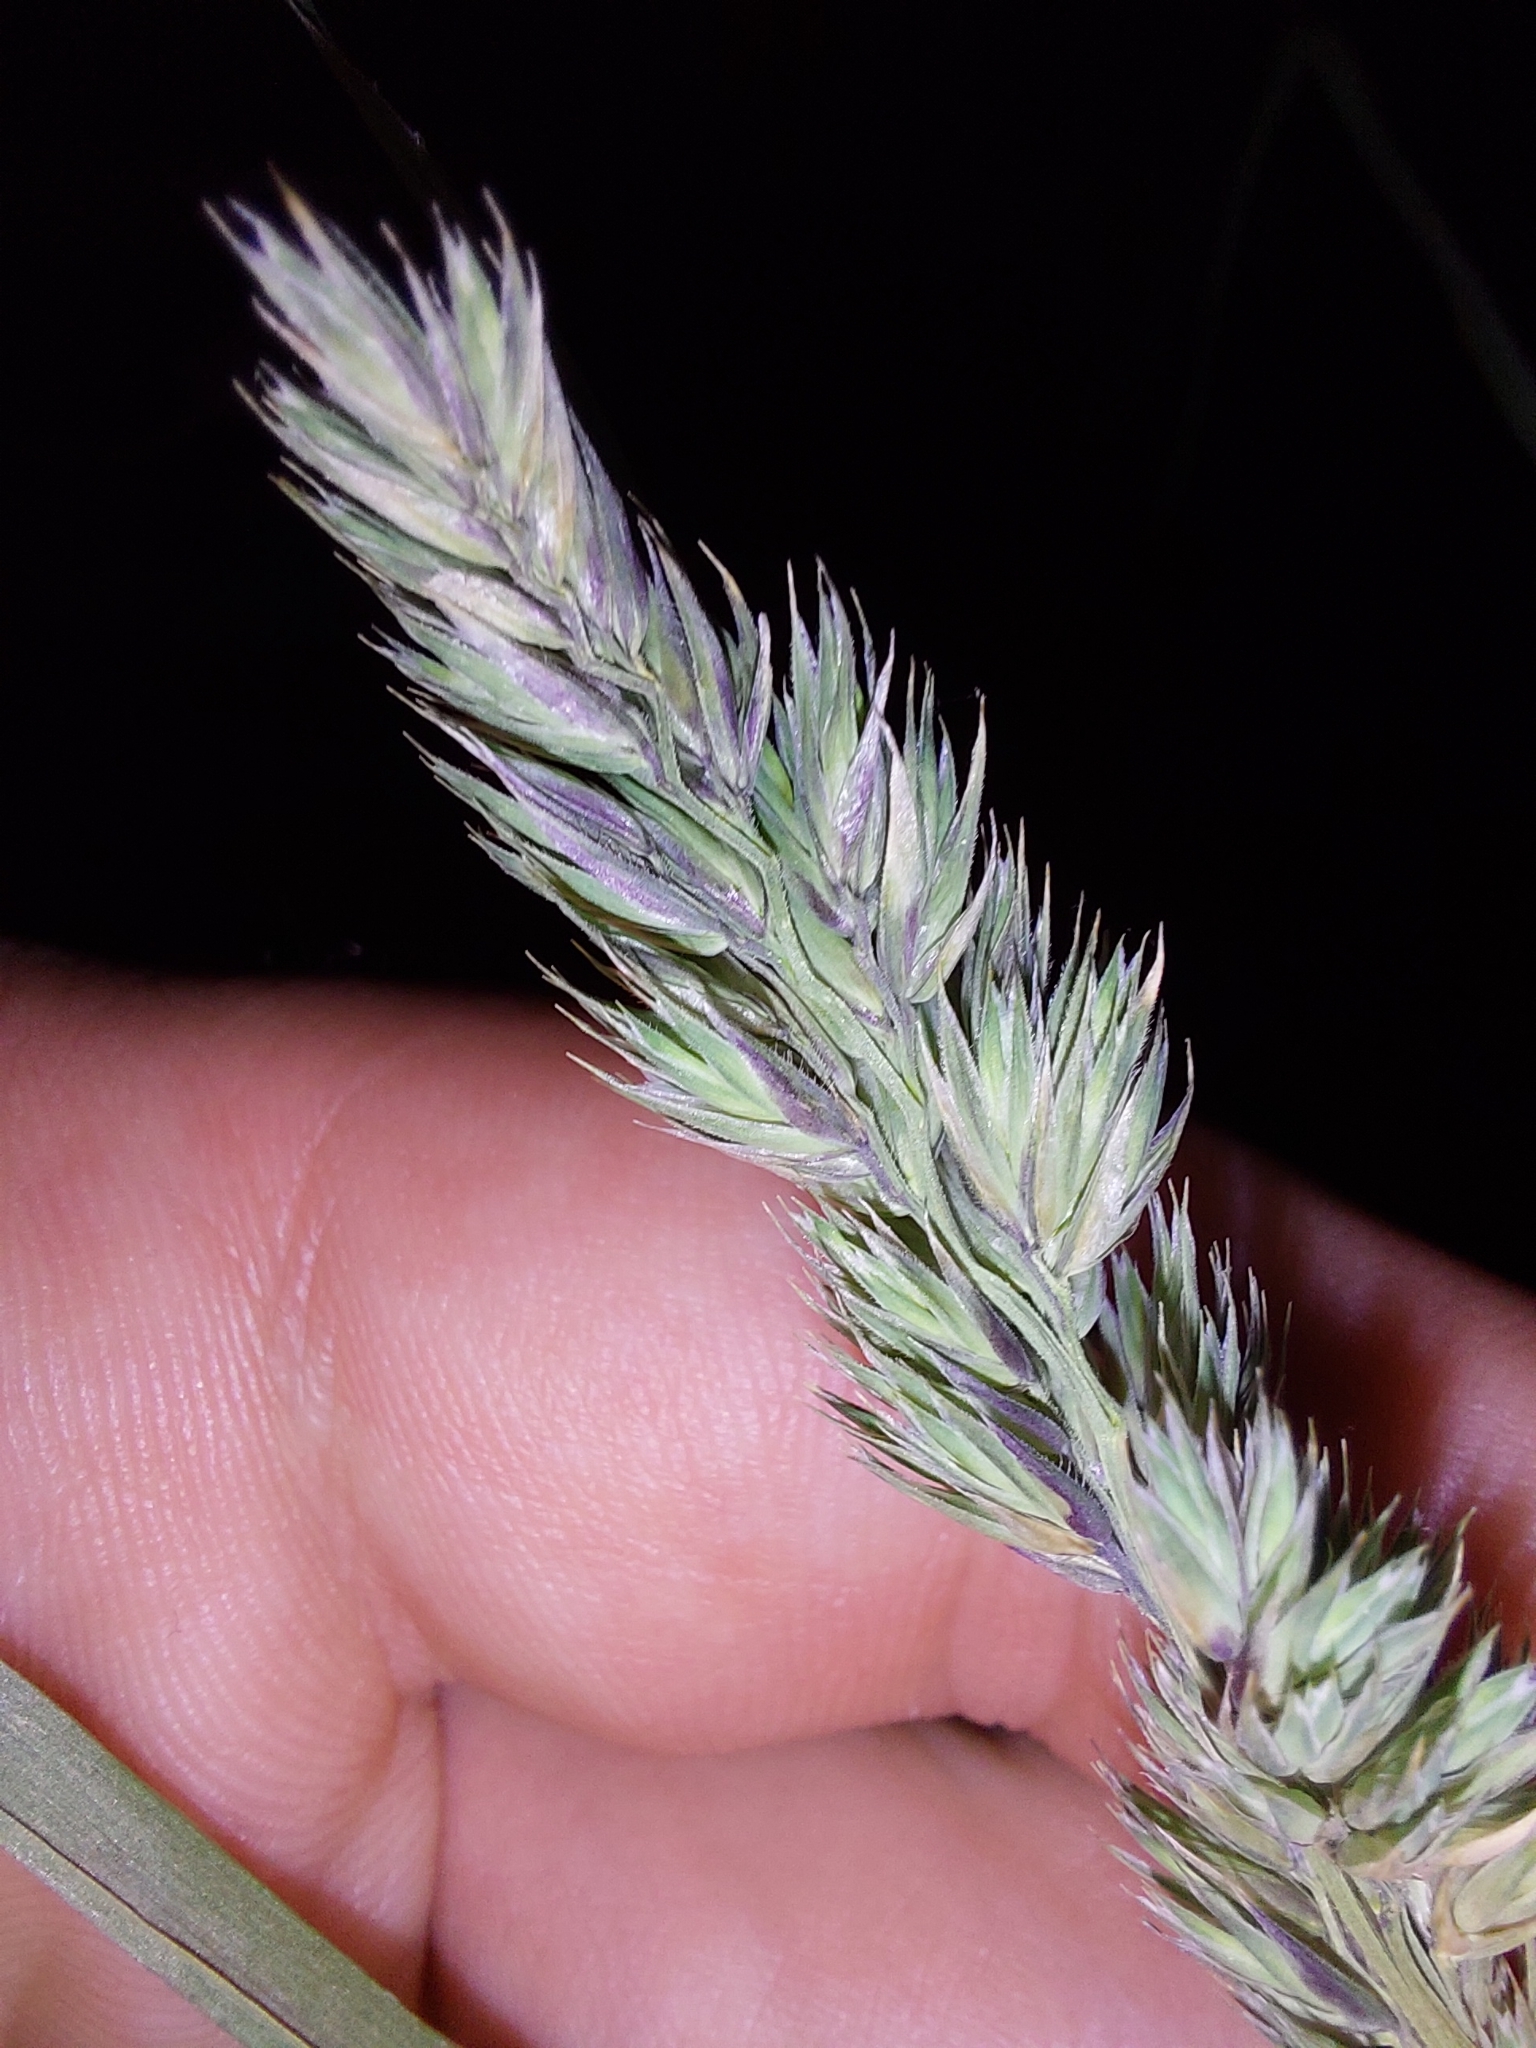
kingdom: Plantae
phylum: Tracheophyta
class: Liliopsida
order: Poales
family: Poaceae
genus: Dactylis
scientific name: Dactylis glomerata
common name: Orchardgrass
